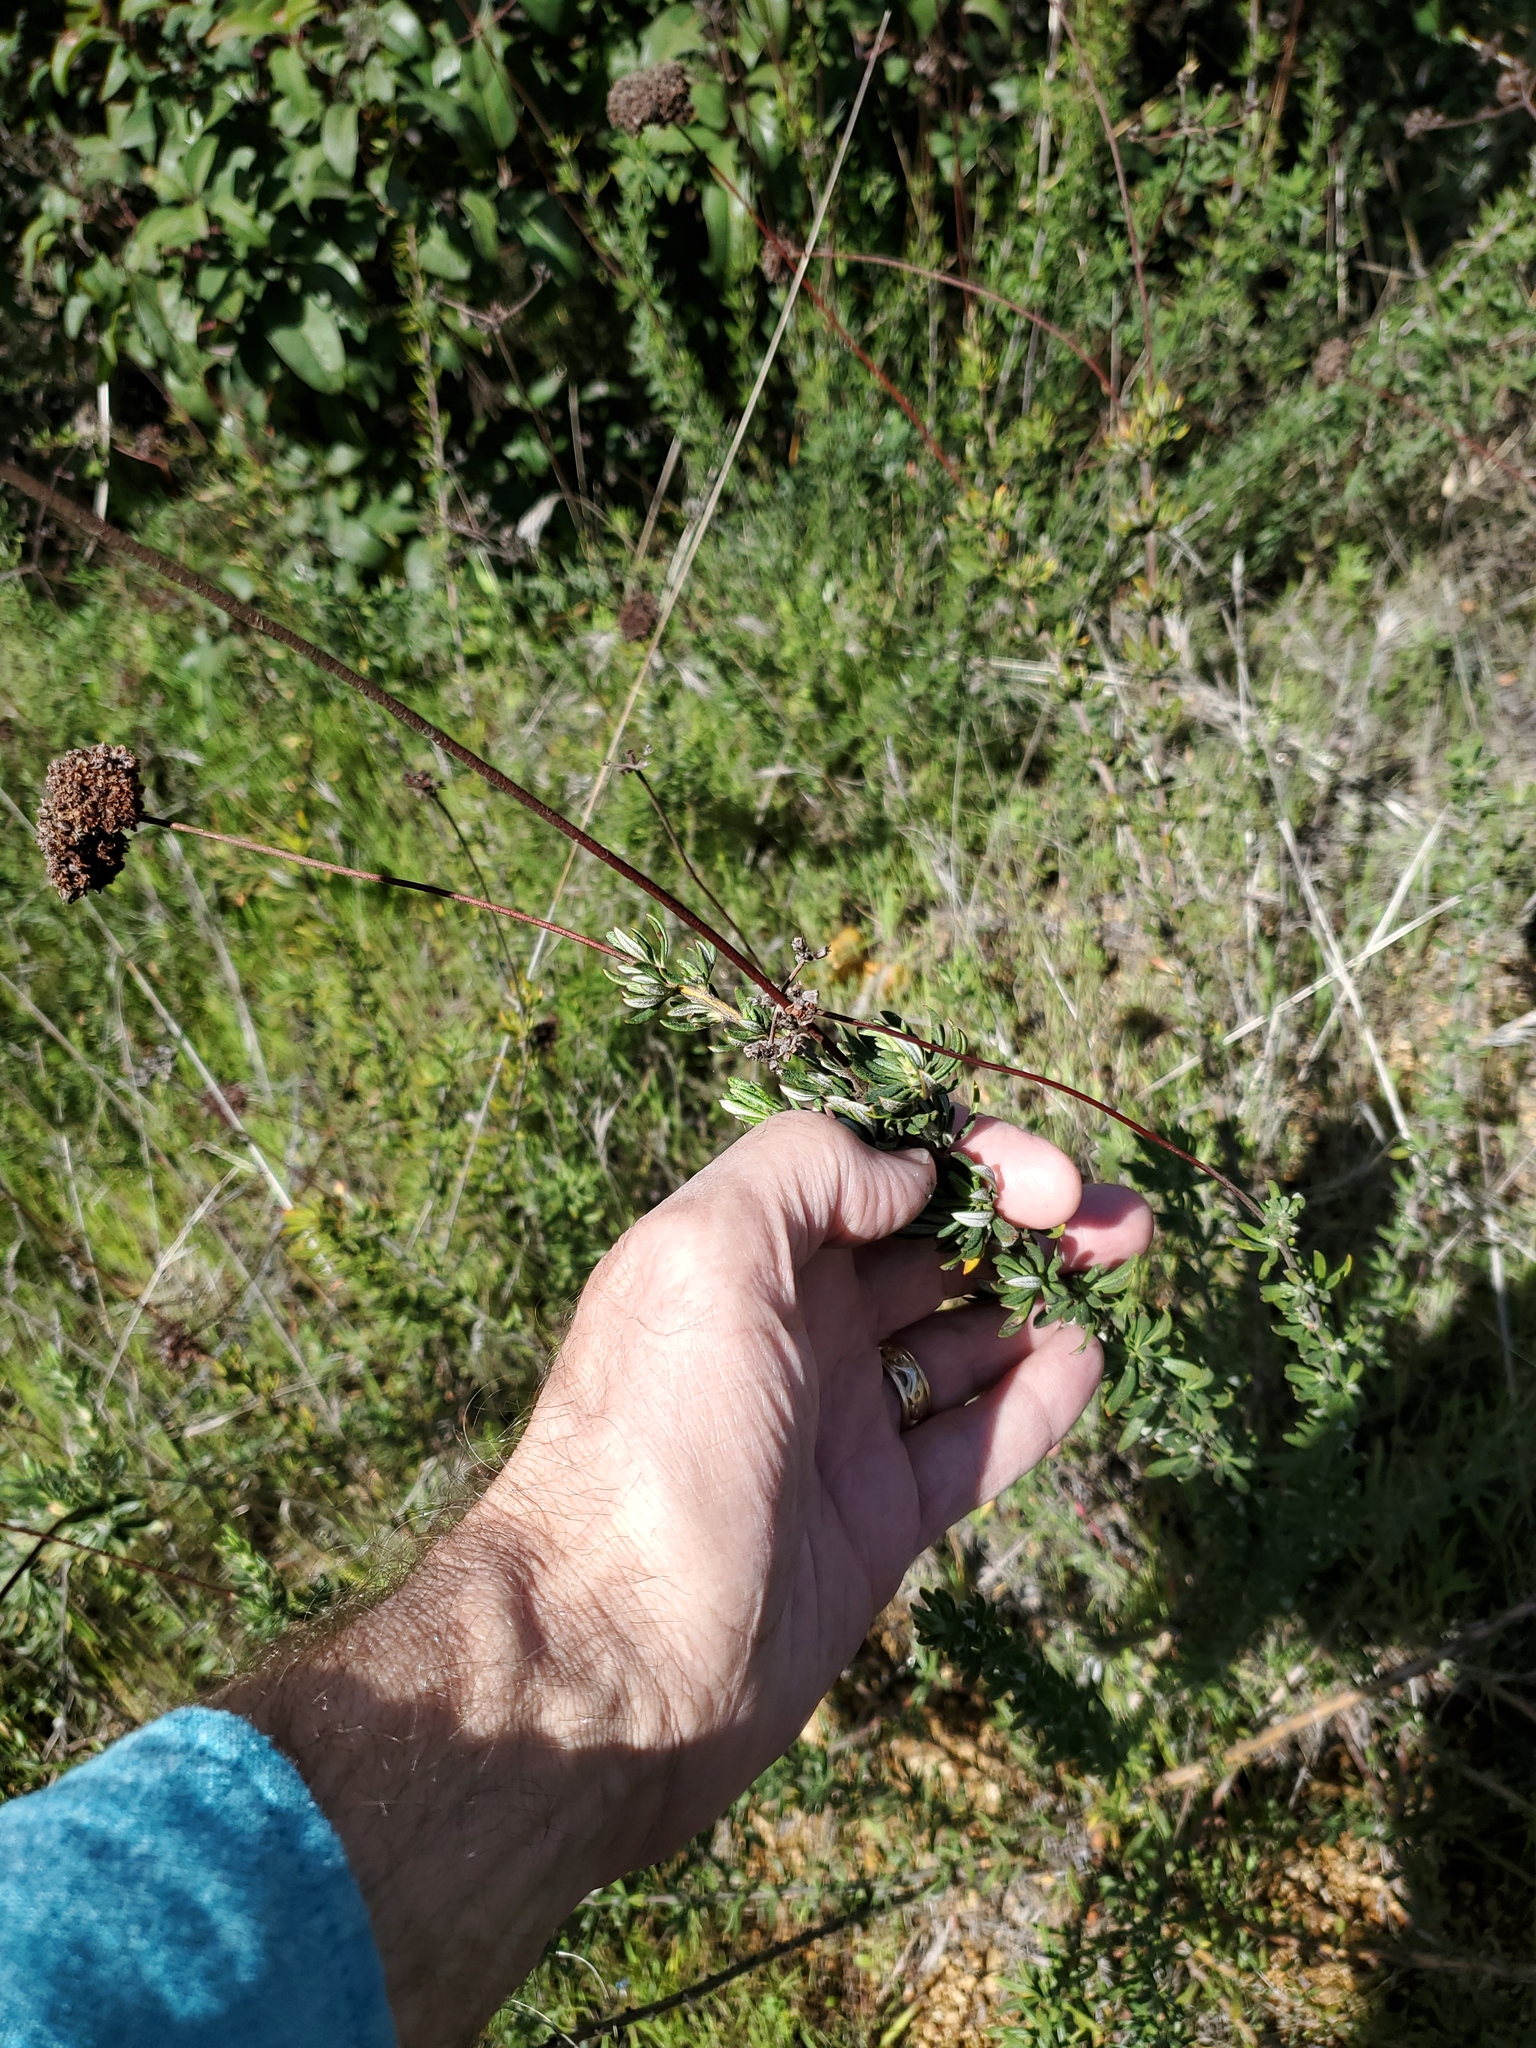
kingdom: Plantae
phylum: Tracheophyta
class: Magnoliopsida
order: Caryophyllales
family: Polygonaceae
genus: Eriogonum
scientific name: Eriogonum fasciculatum
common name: California wild buckwheat
